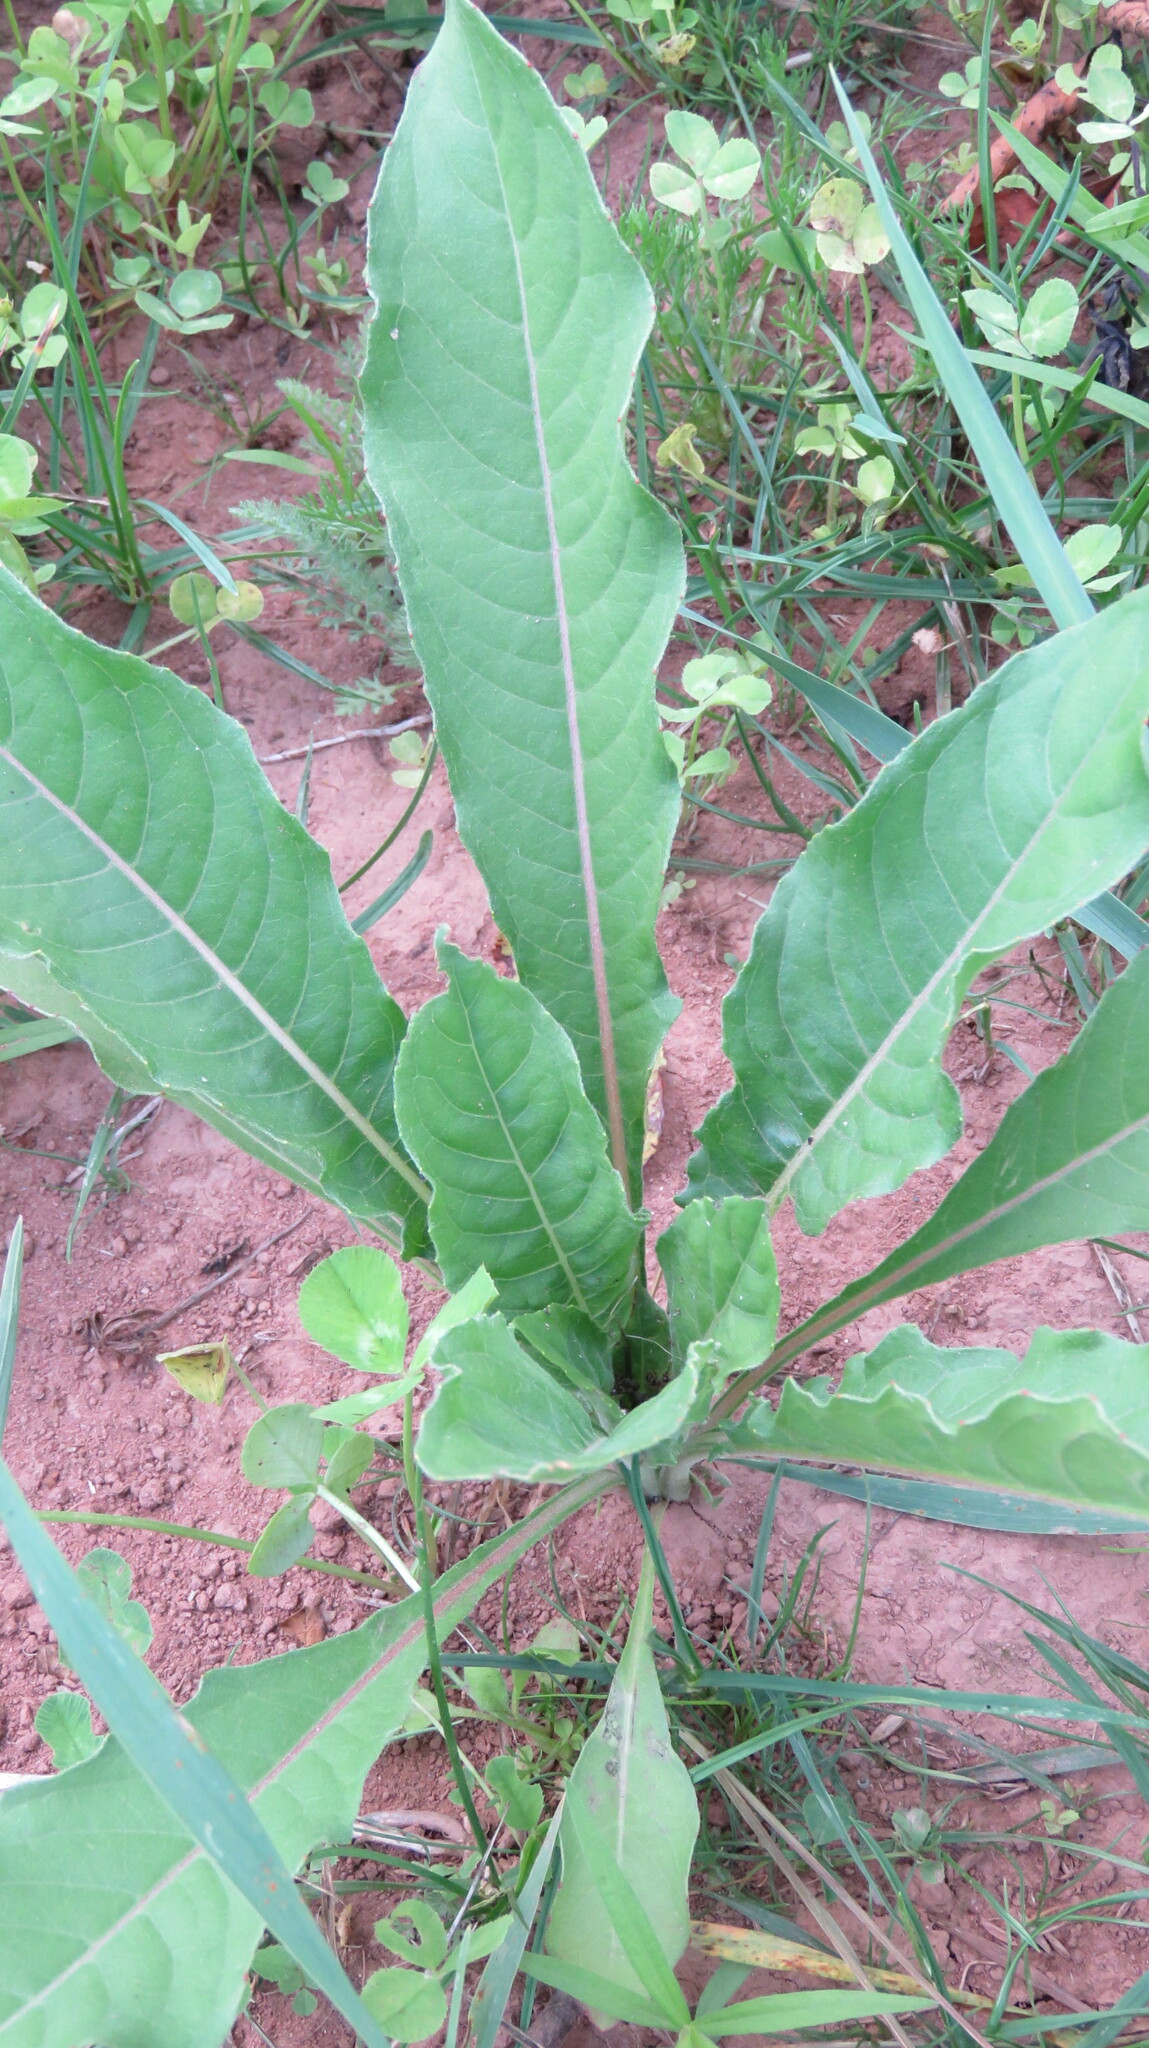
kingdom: Plantae
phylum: Tracheophyta
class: Magnoliopsida
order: Myrtales
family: Onagraceae
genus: Oenothera
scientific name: Oenothera biennis
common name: Common evening-primrose
